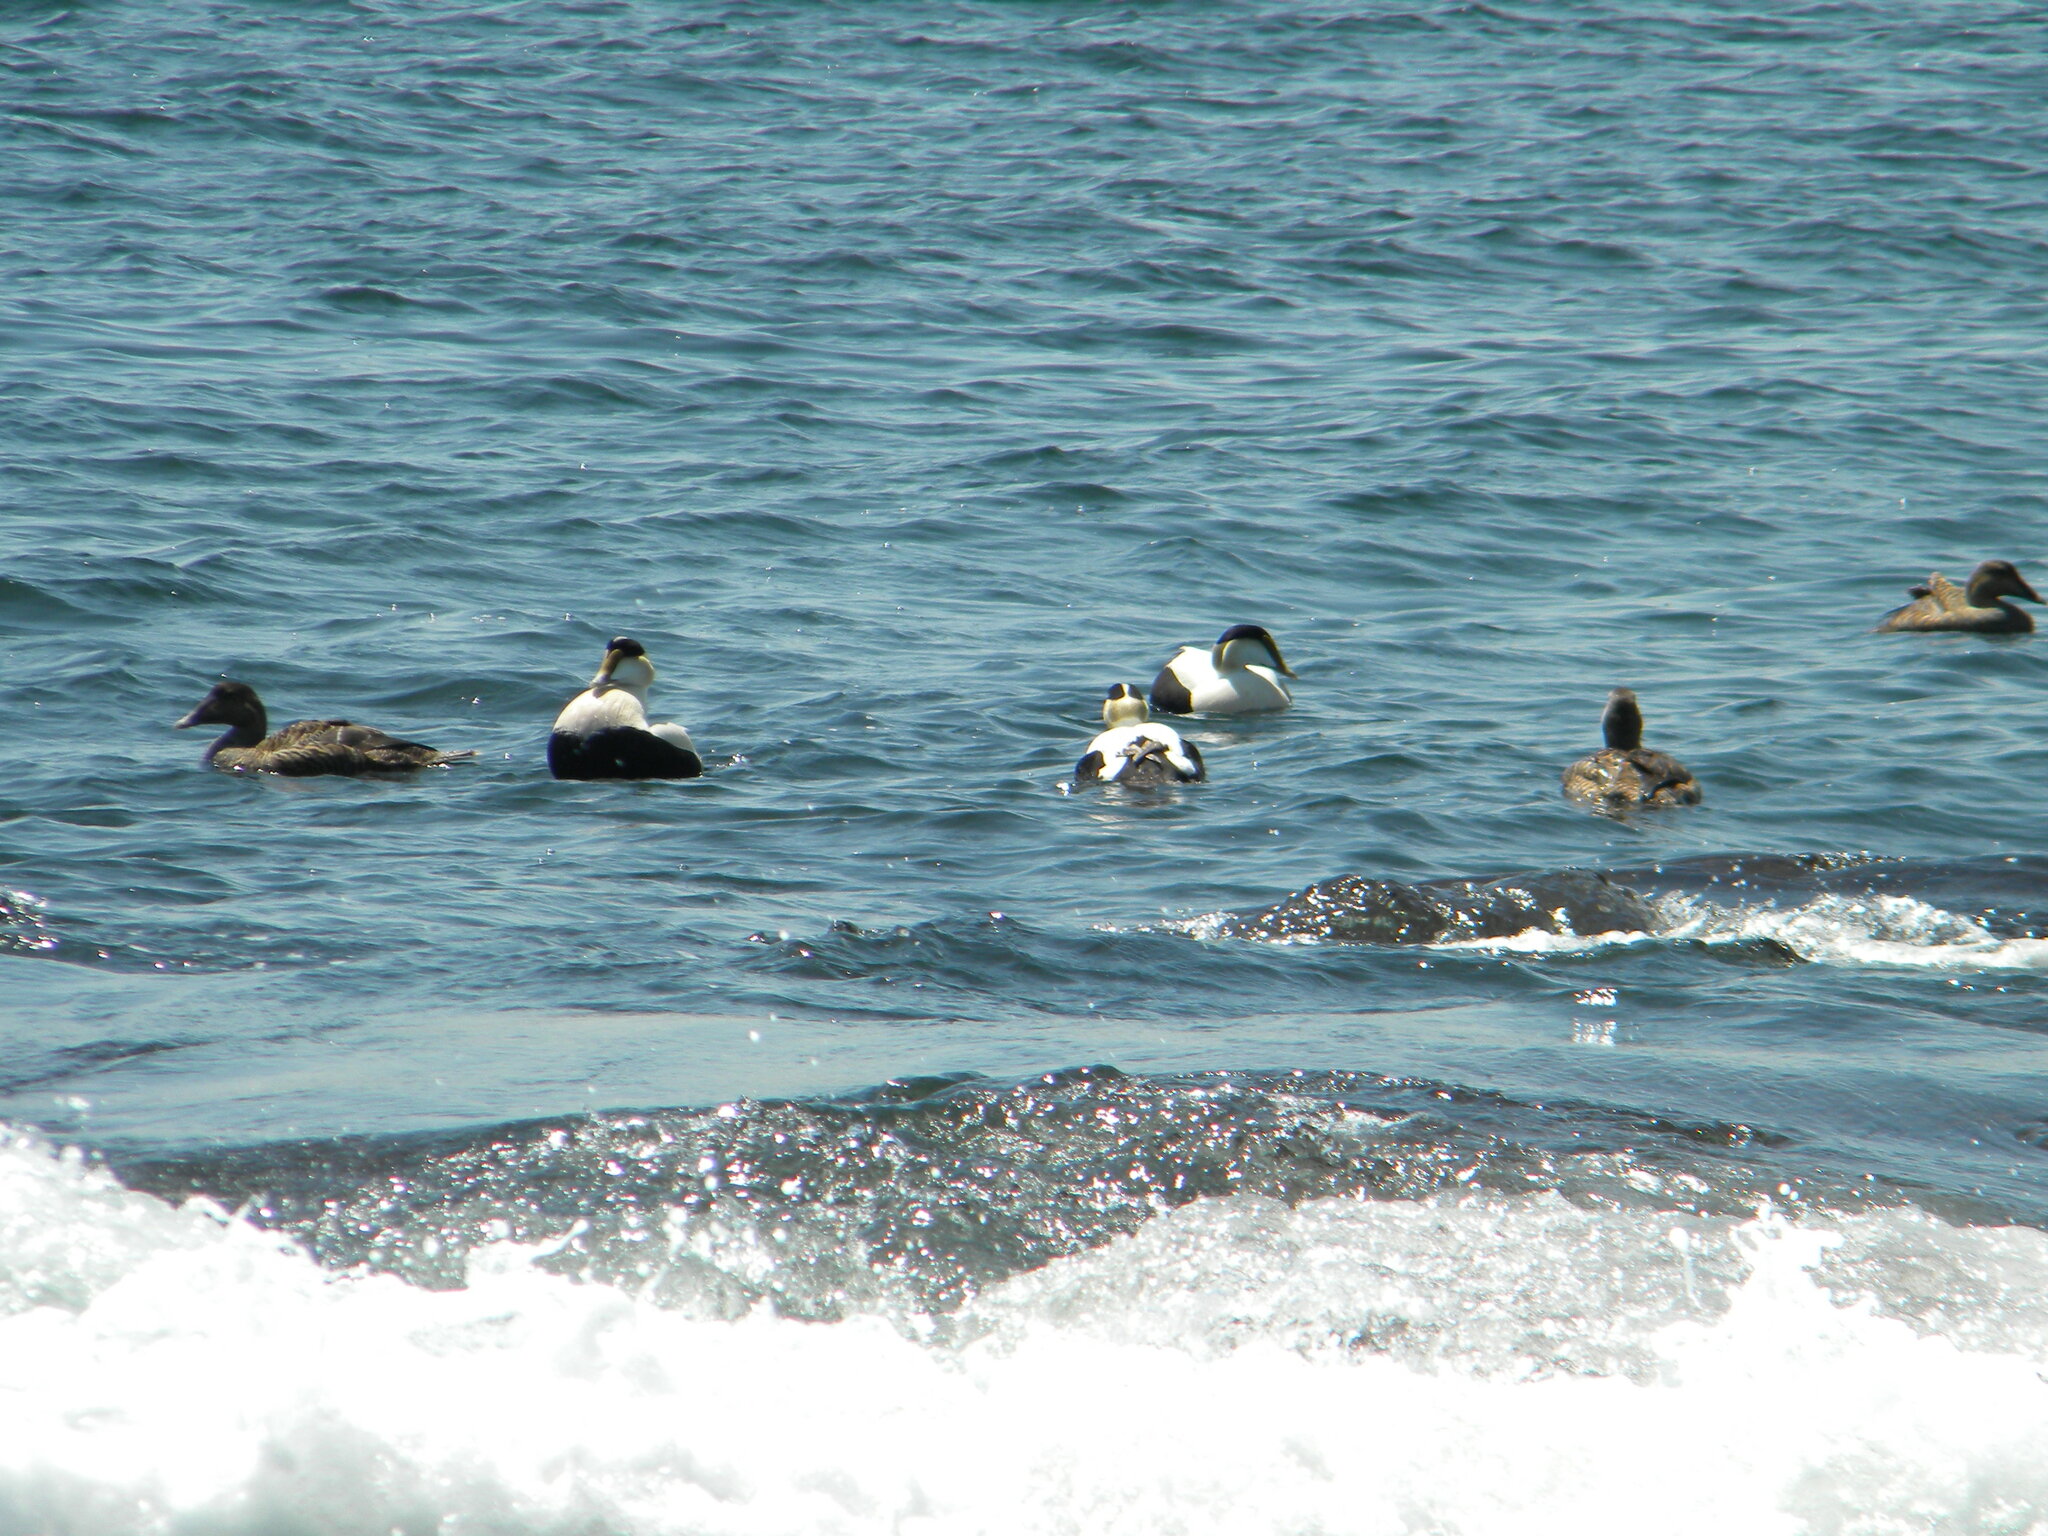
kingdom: Animalia
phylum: Chordata
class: Aves
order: Anseriformes
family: Anatidae
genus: Somateria
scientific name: Somateria mollissima
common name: Common eider
